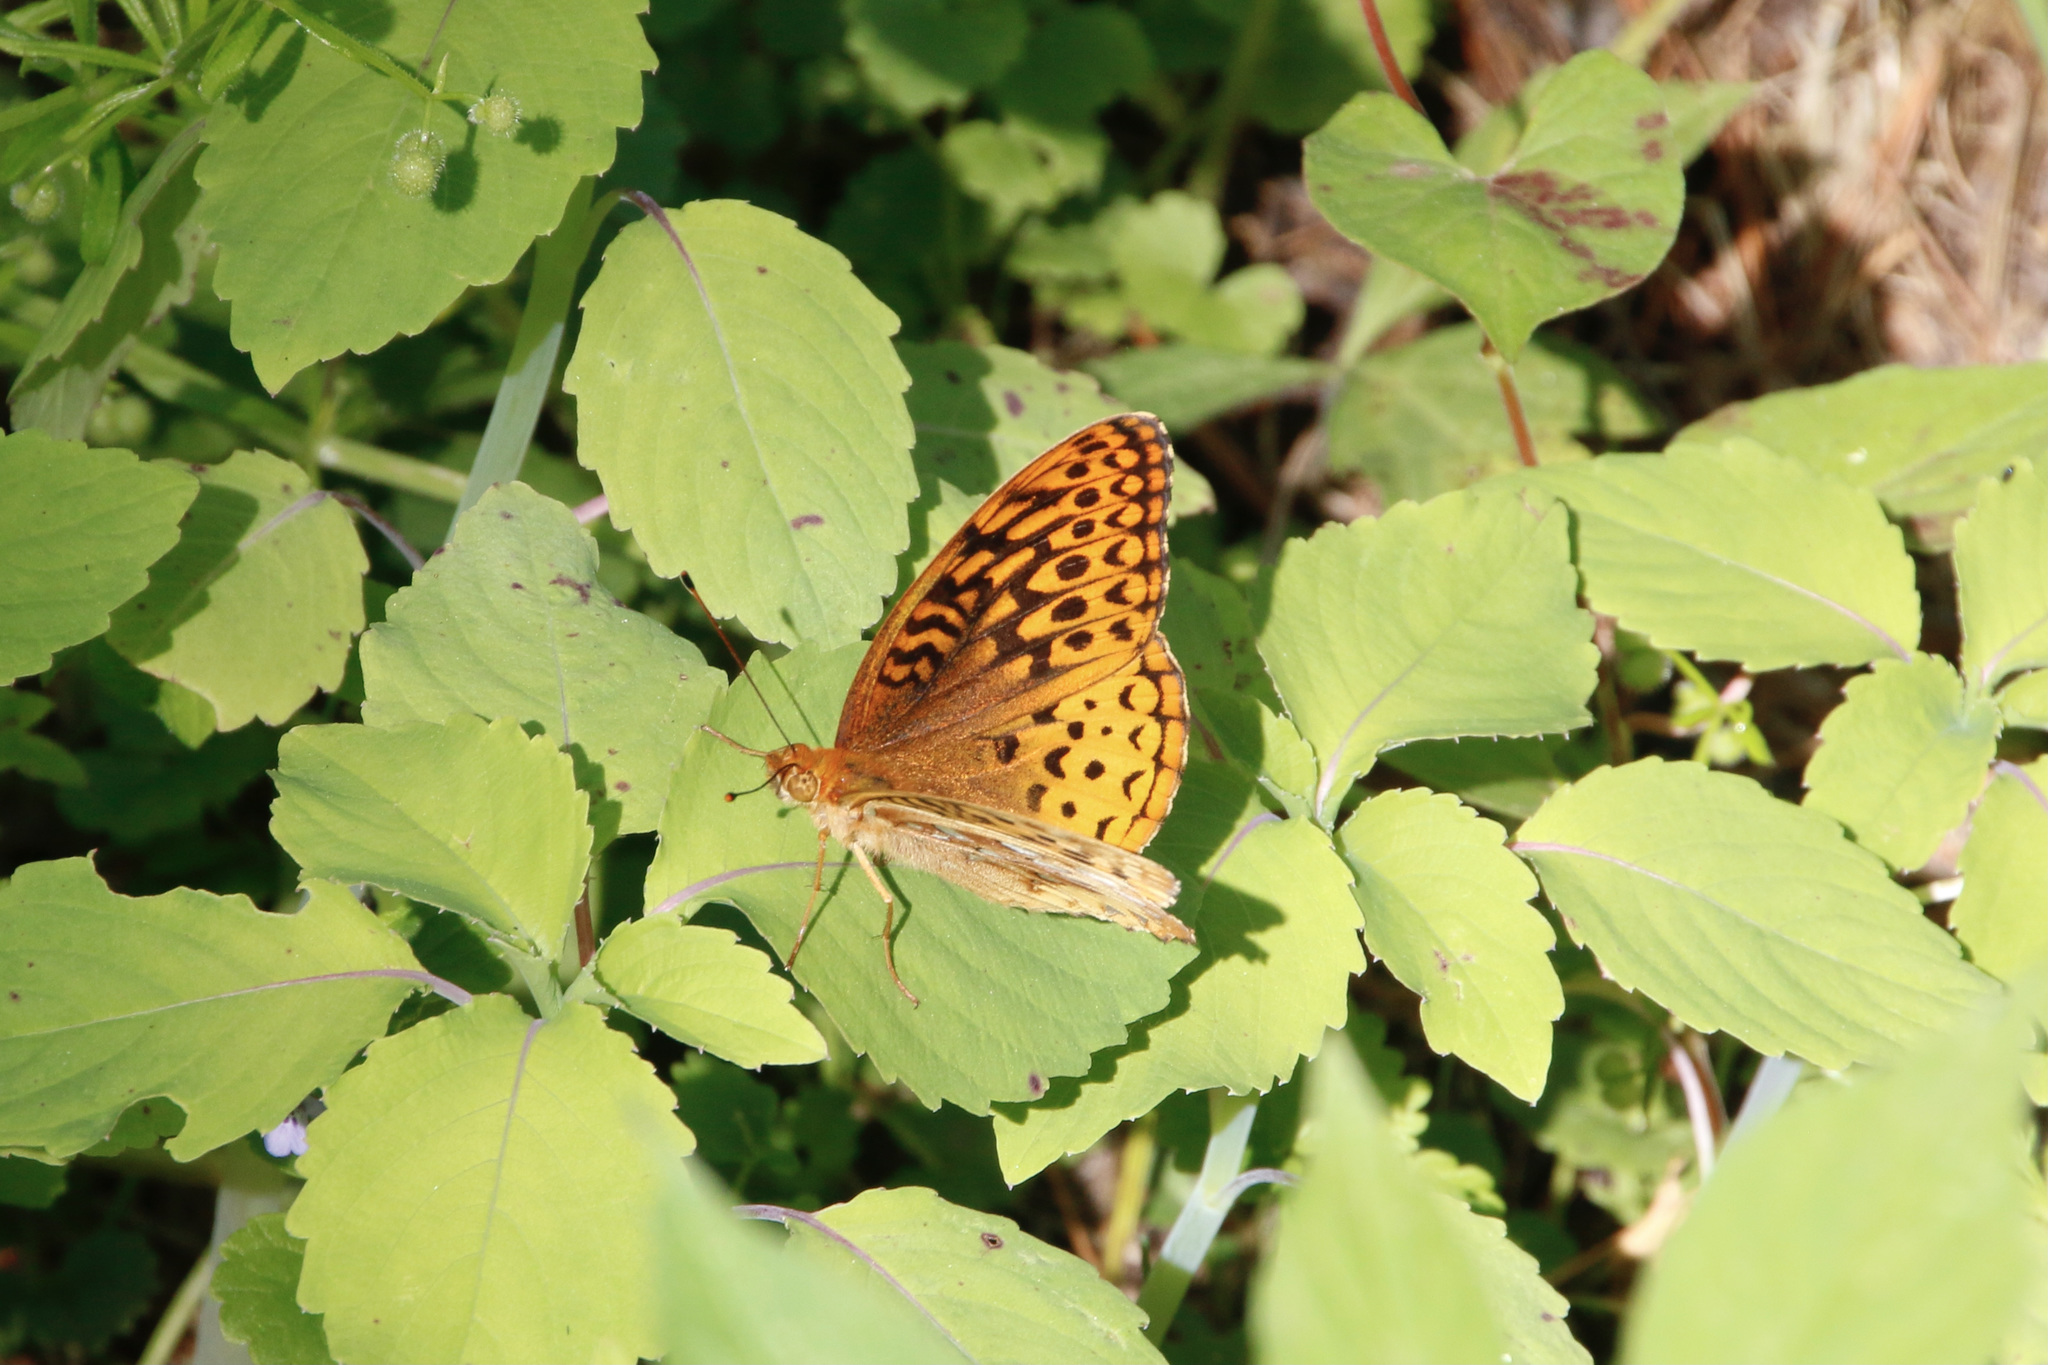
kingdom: Animalia
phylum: Arthropoda
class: Insecta
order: Lepidoptera
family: Nymphalidae
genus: Speyeria
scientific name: Speyeria cybele
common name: Great spangled fritillary
